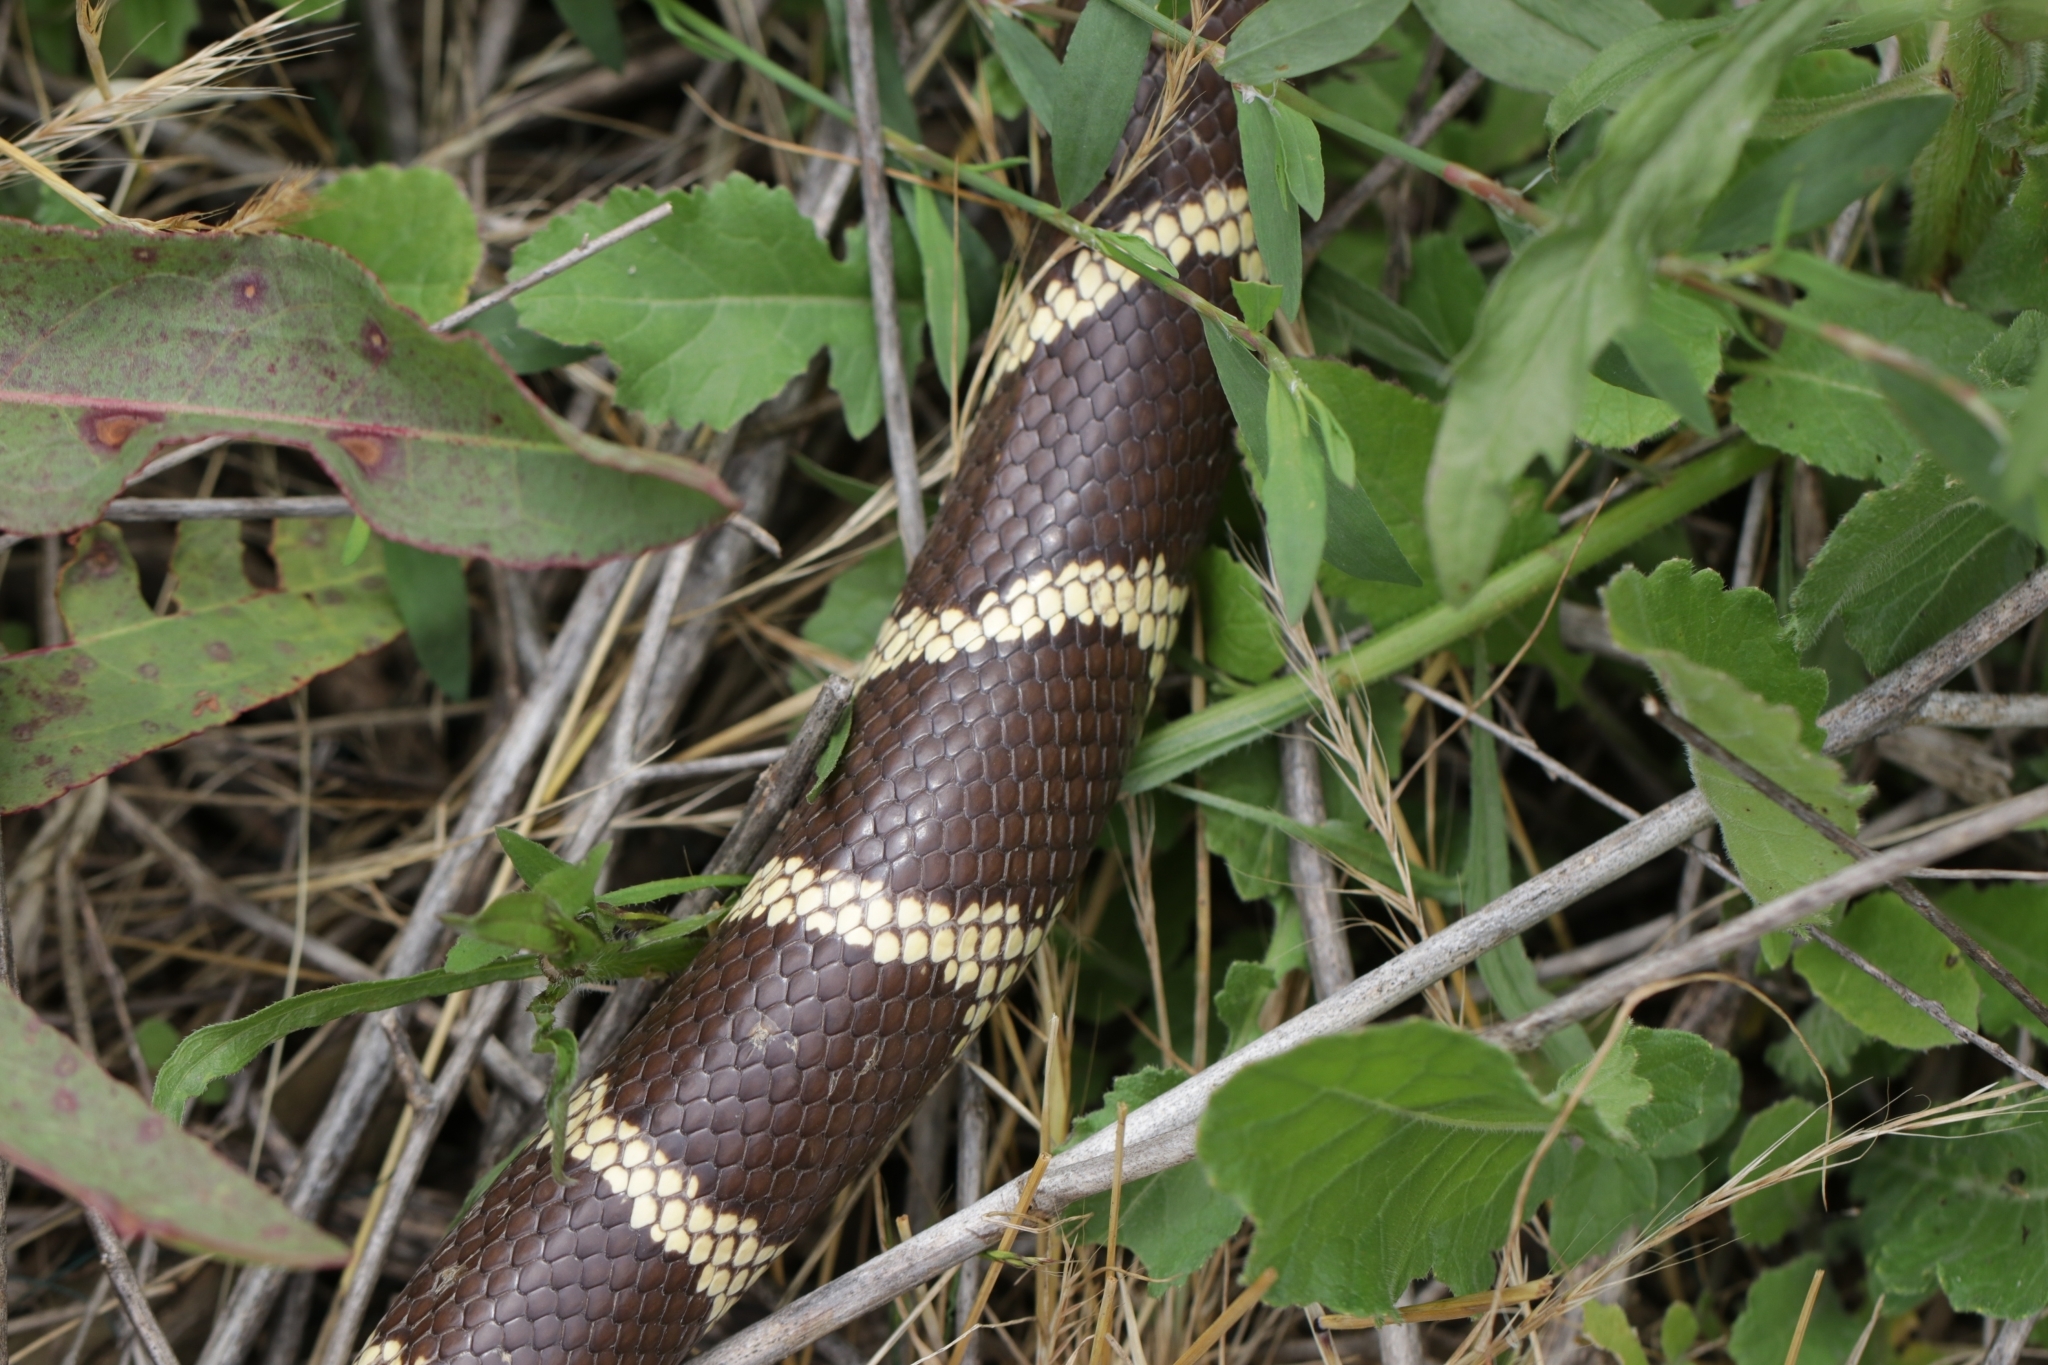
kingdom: Animalia
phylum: Chordata
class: Squamata
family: Colubridae
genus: Lampropeltis
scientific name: Lampropeltis californiae
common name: California kingsnake
